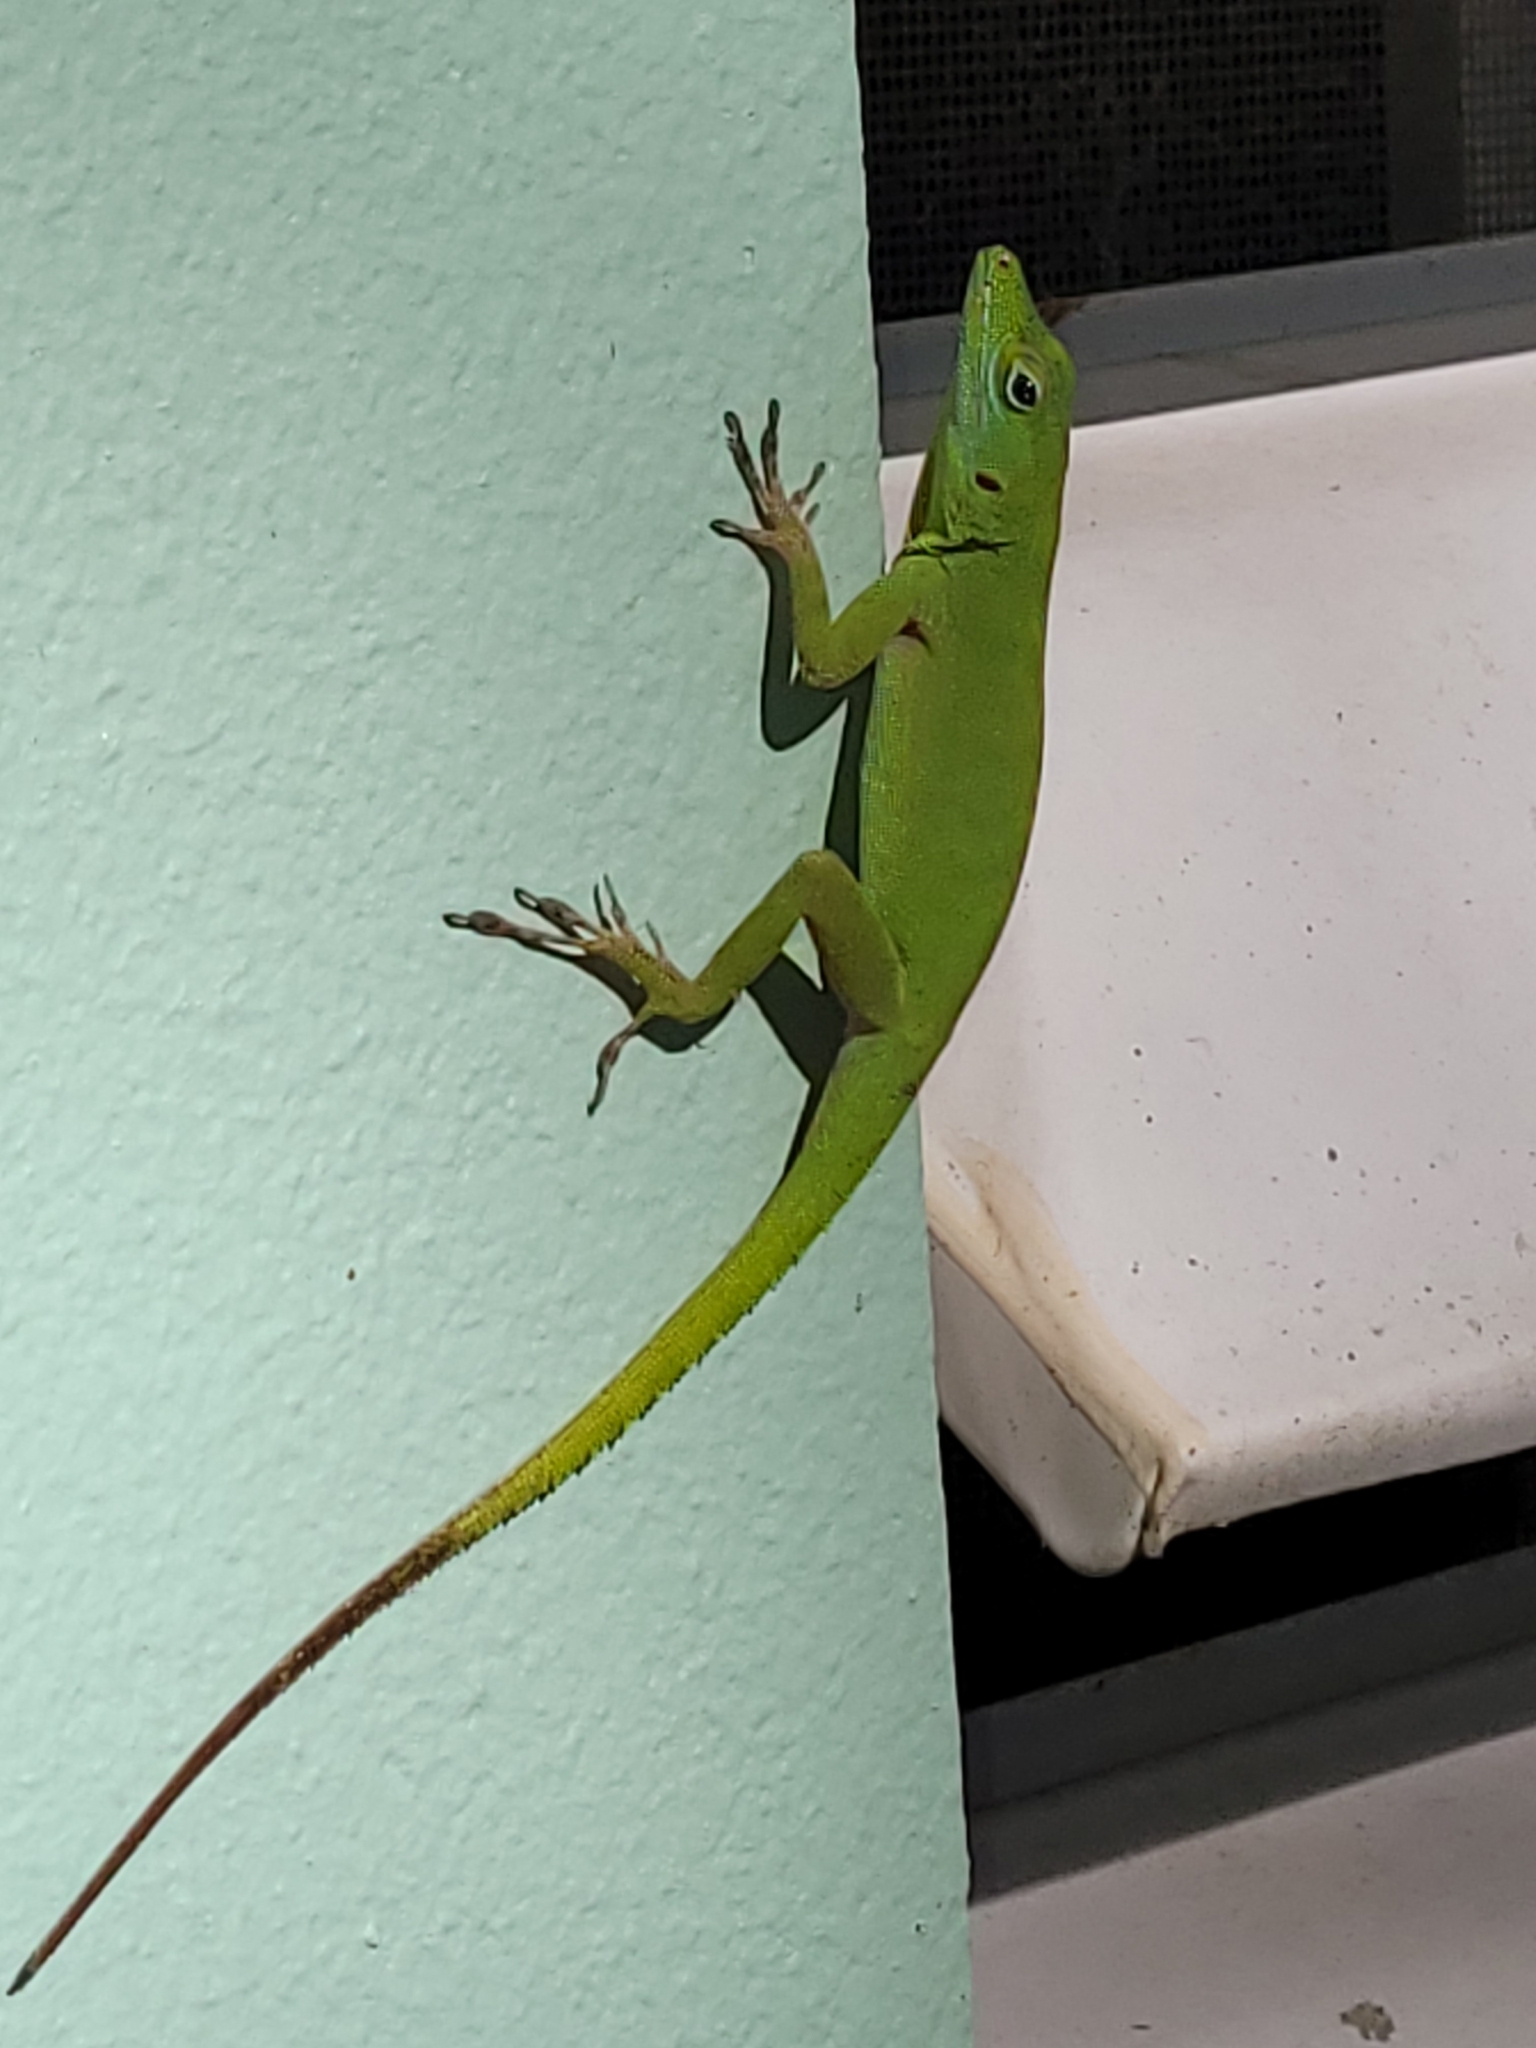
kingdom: Animalia
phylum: Chordata
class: Squamata
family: Dactyloidae
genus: Anolis
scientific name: Anolis evermanni
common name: Emerald anole
